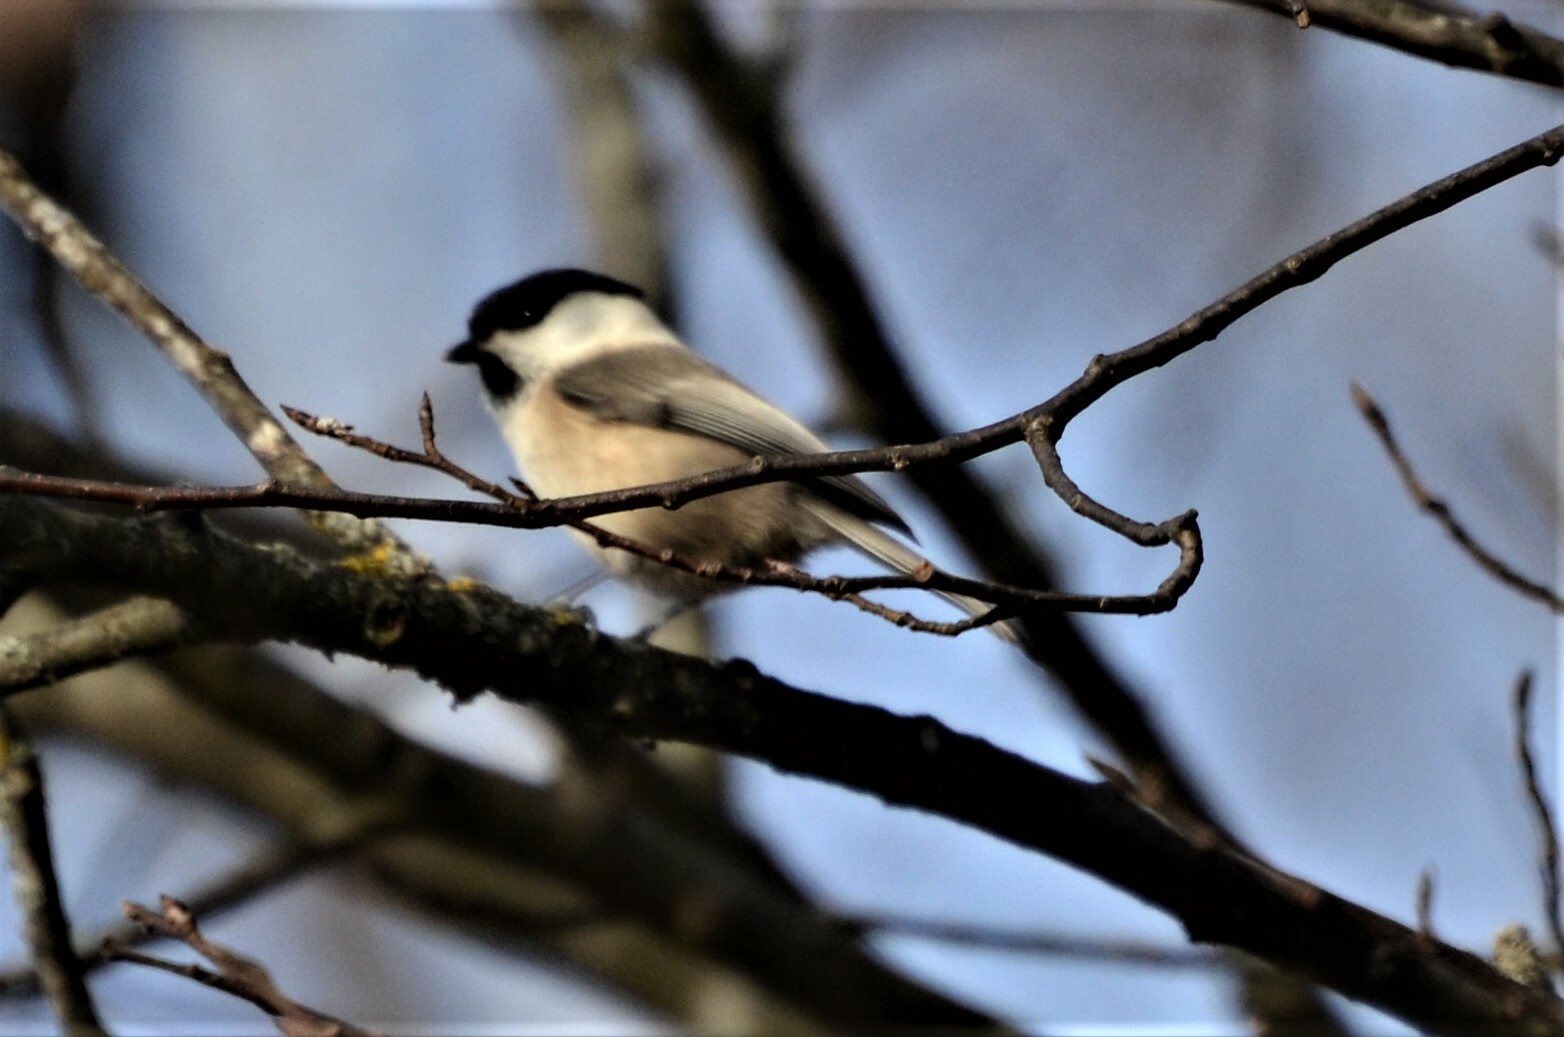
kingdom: Animalia
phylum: Chordata
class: Aves
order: Passeriformes
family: Paridae
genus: Poecile
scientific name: Poecile montanus
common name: Willow tit
